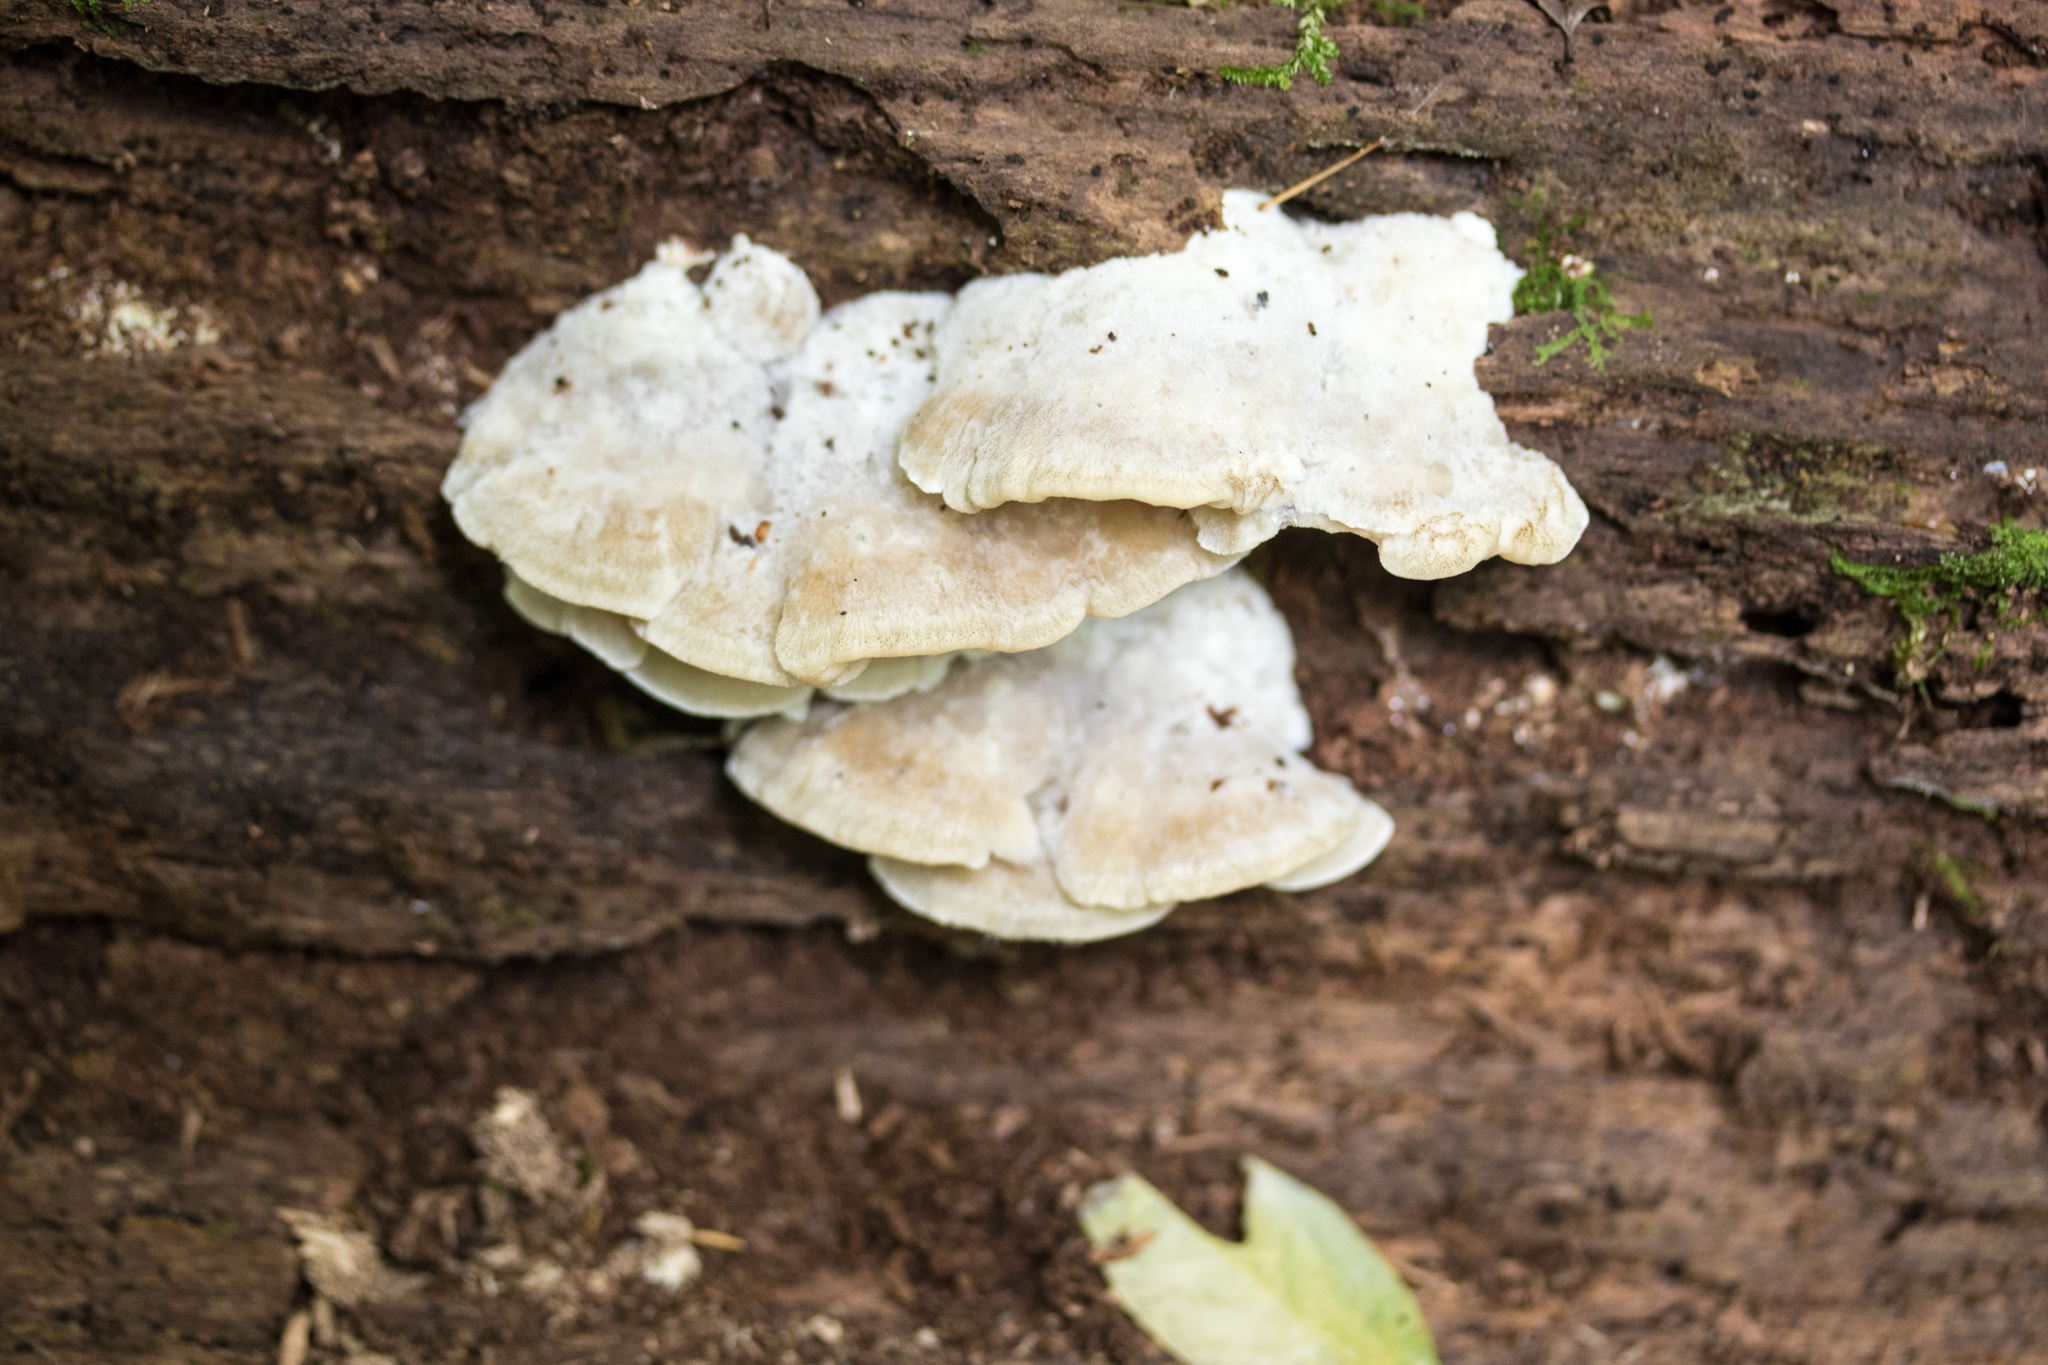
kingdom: Fungi
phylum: Basidiomycota
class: Agaricomycetes
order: Polyporales
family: Incrustoporiaceae
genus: Tyromyces
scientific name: Tyromyces chioneus
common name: White cheese polypore
